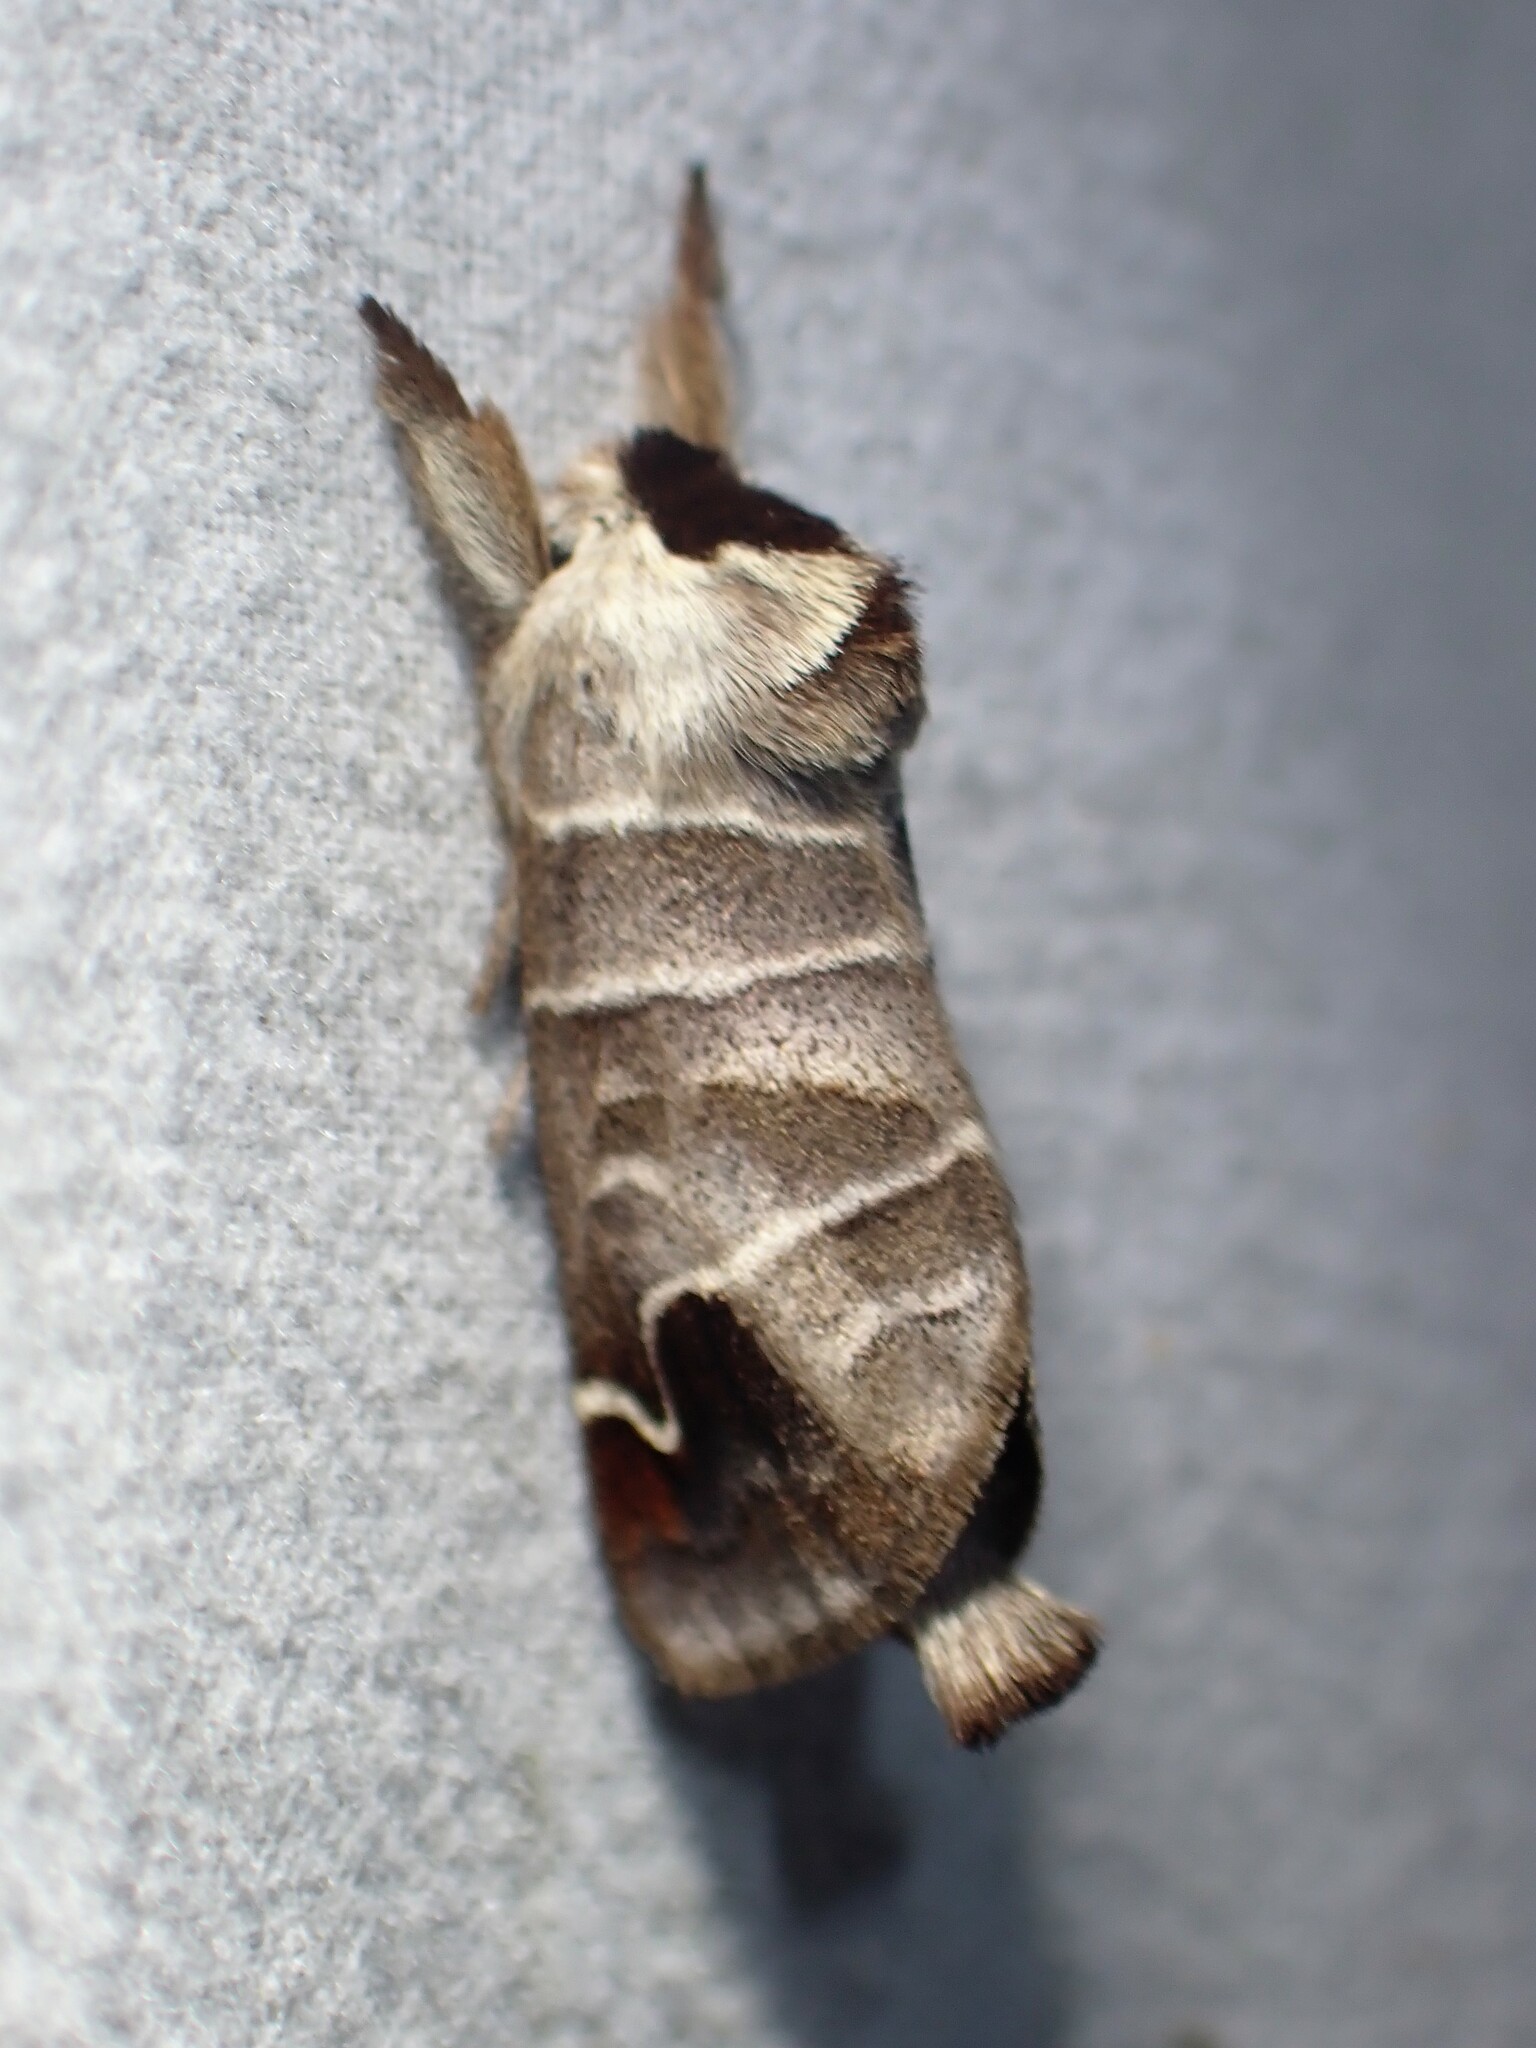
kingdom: Animalia
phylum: Arthropoda
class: Insecta
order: Lepidoptera
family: Notodontidae
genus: Clostera
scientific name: Clostera albosigma
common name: Sigmoid prominent
